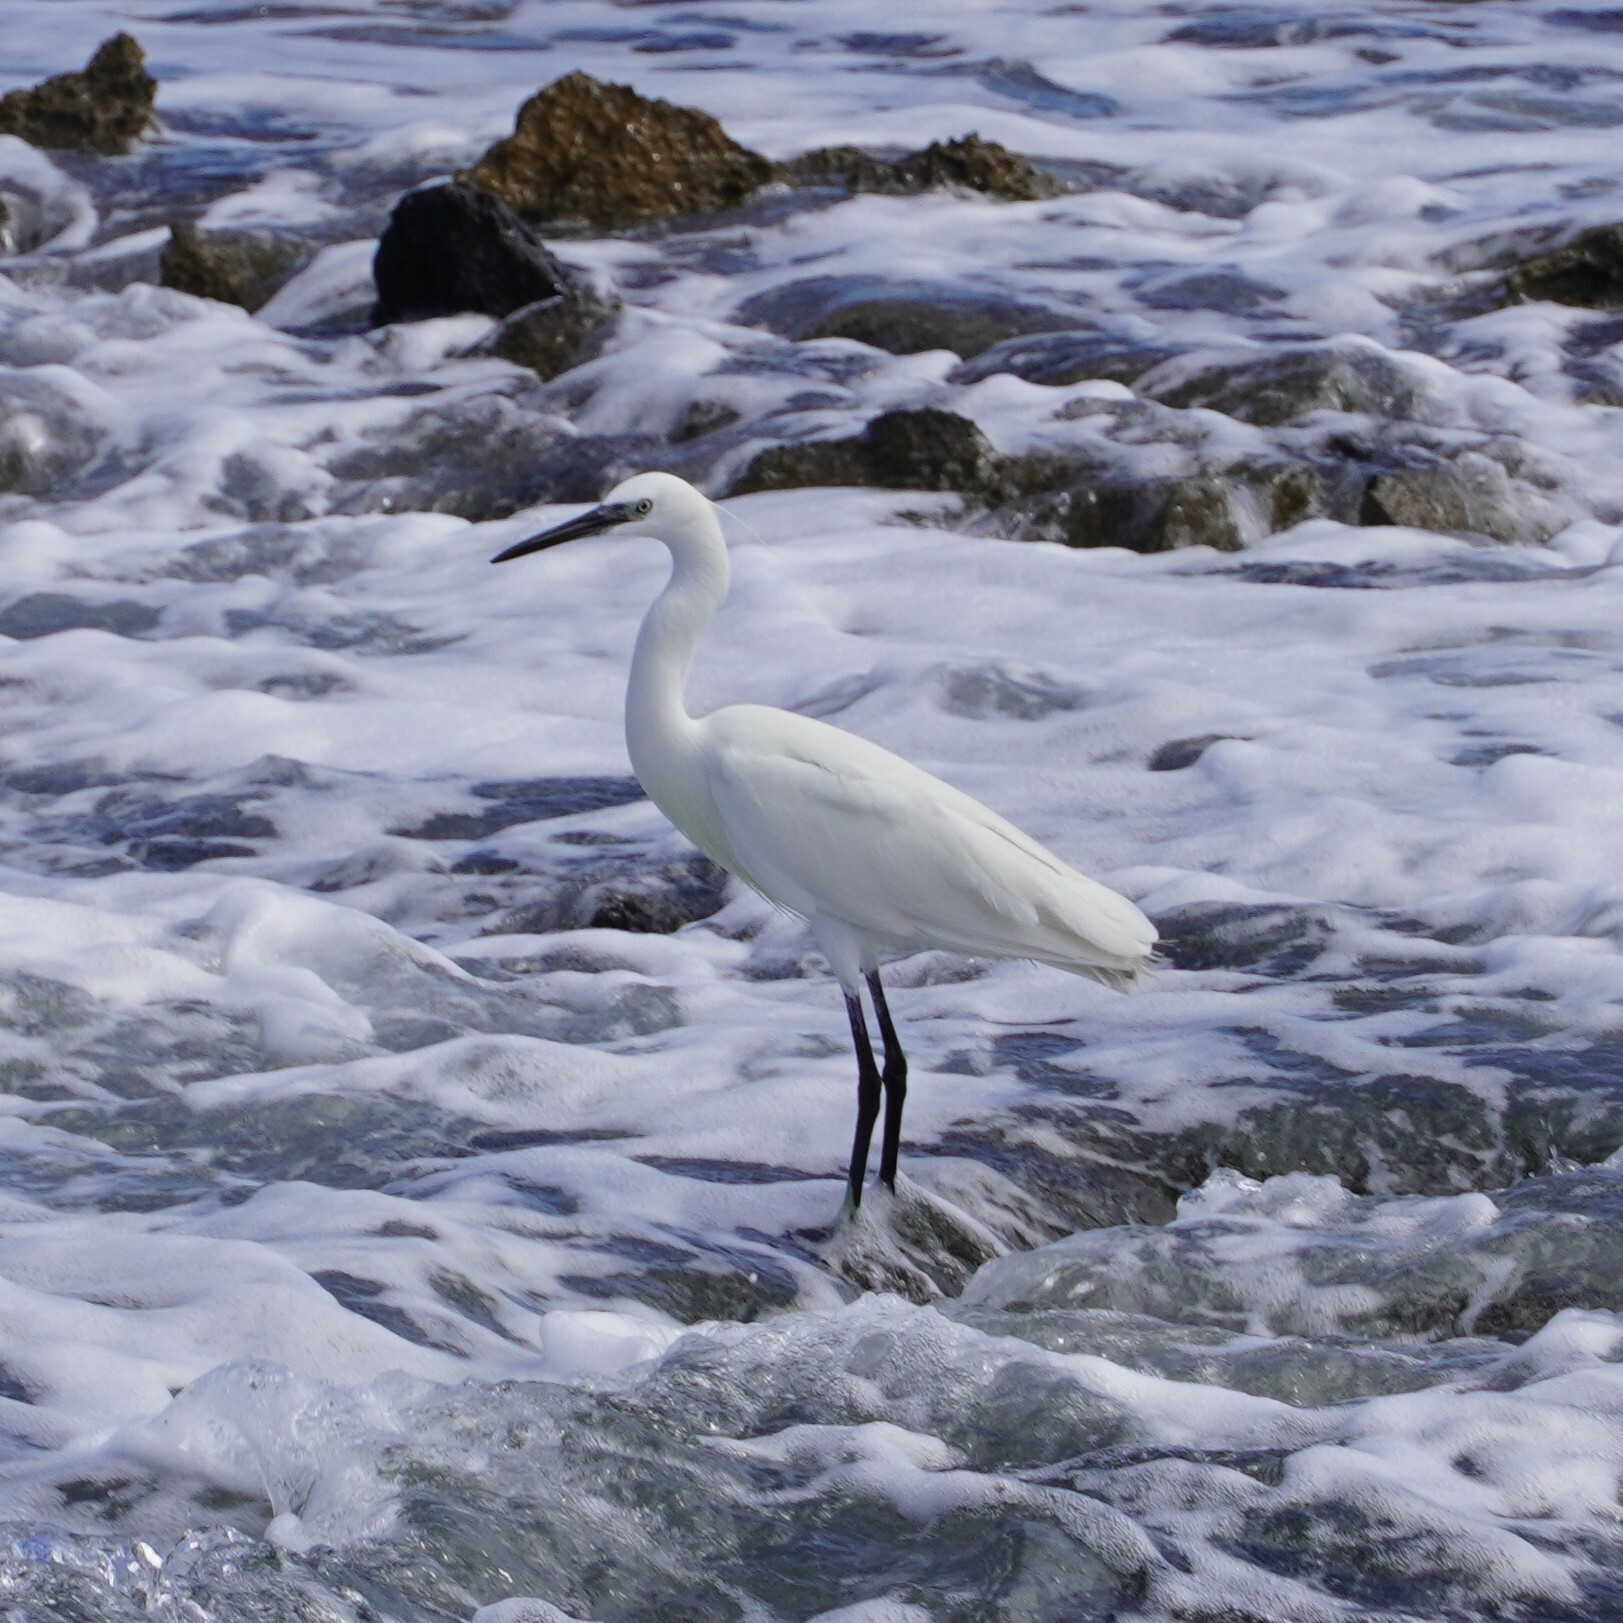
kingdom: Animalia
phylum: Chordata
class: Aves
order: Pelecaniformes
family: Ardeidae
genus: Egretta
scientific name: Egretta garzetta
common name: Little egret
